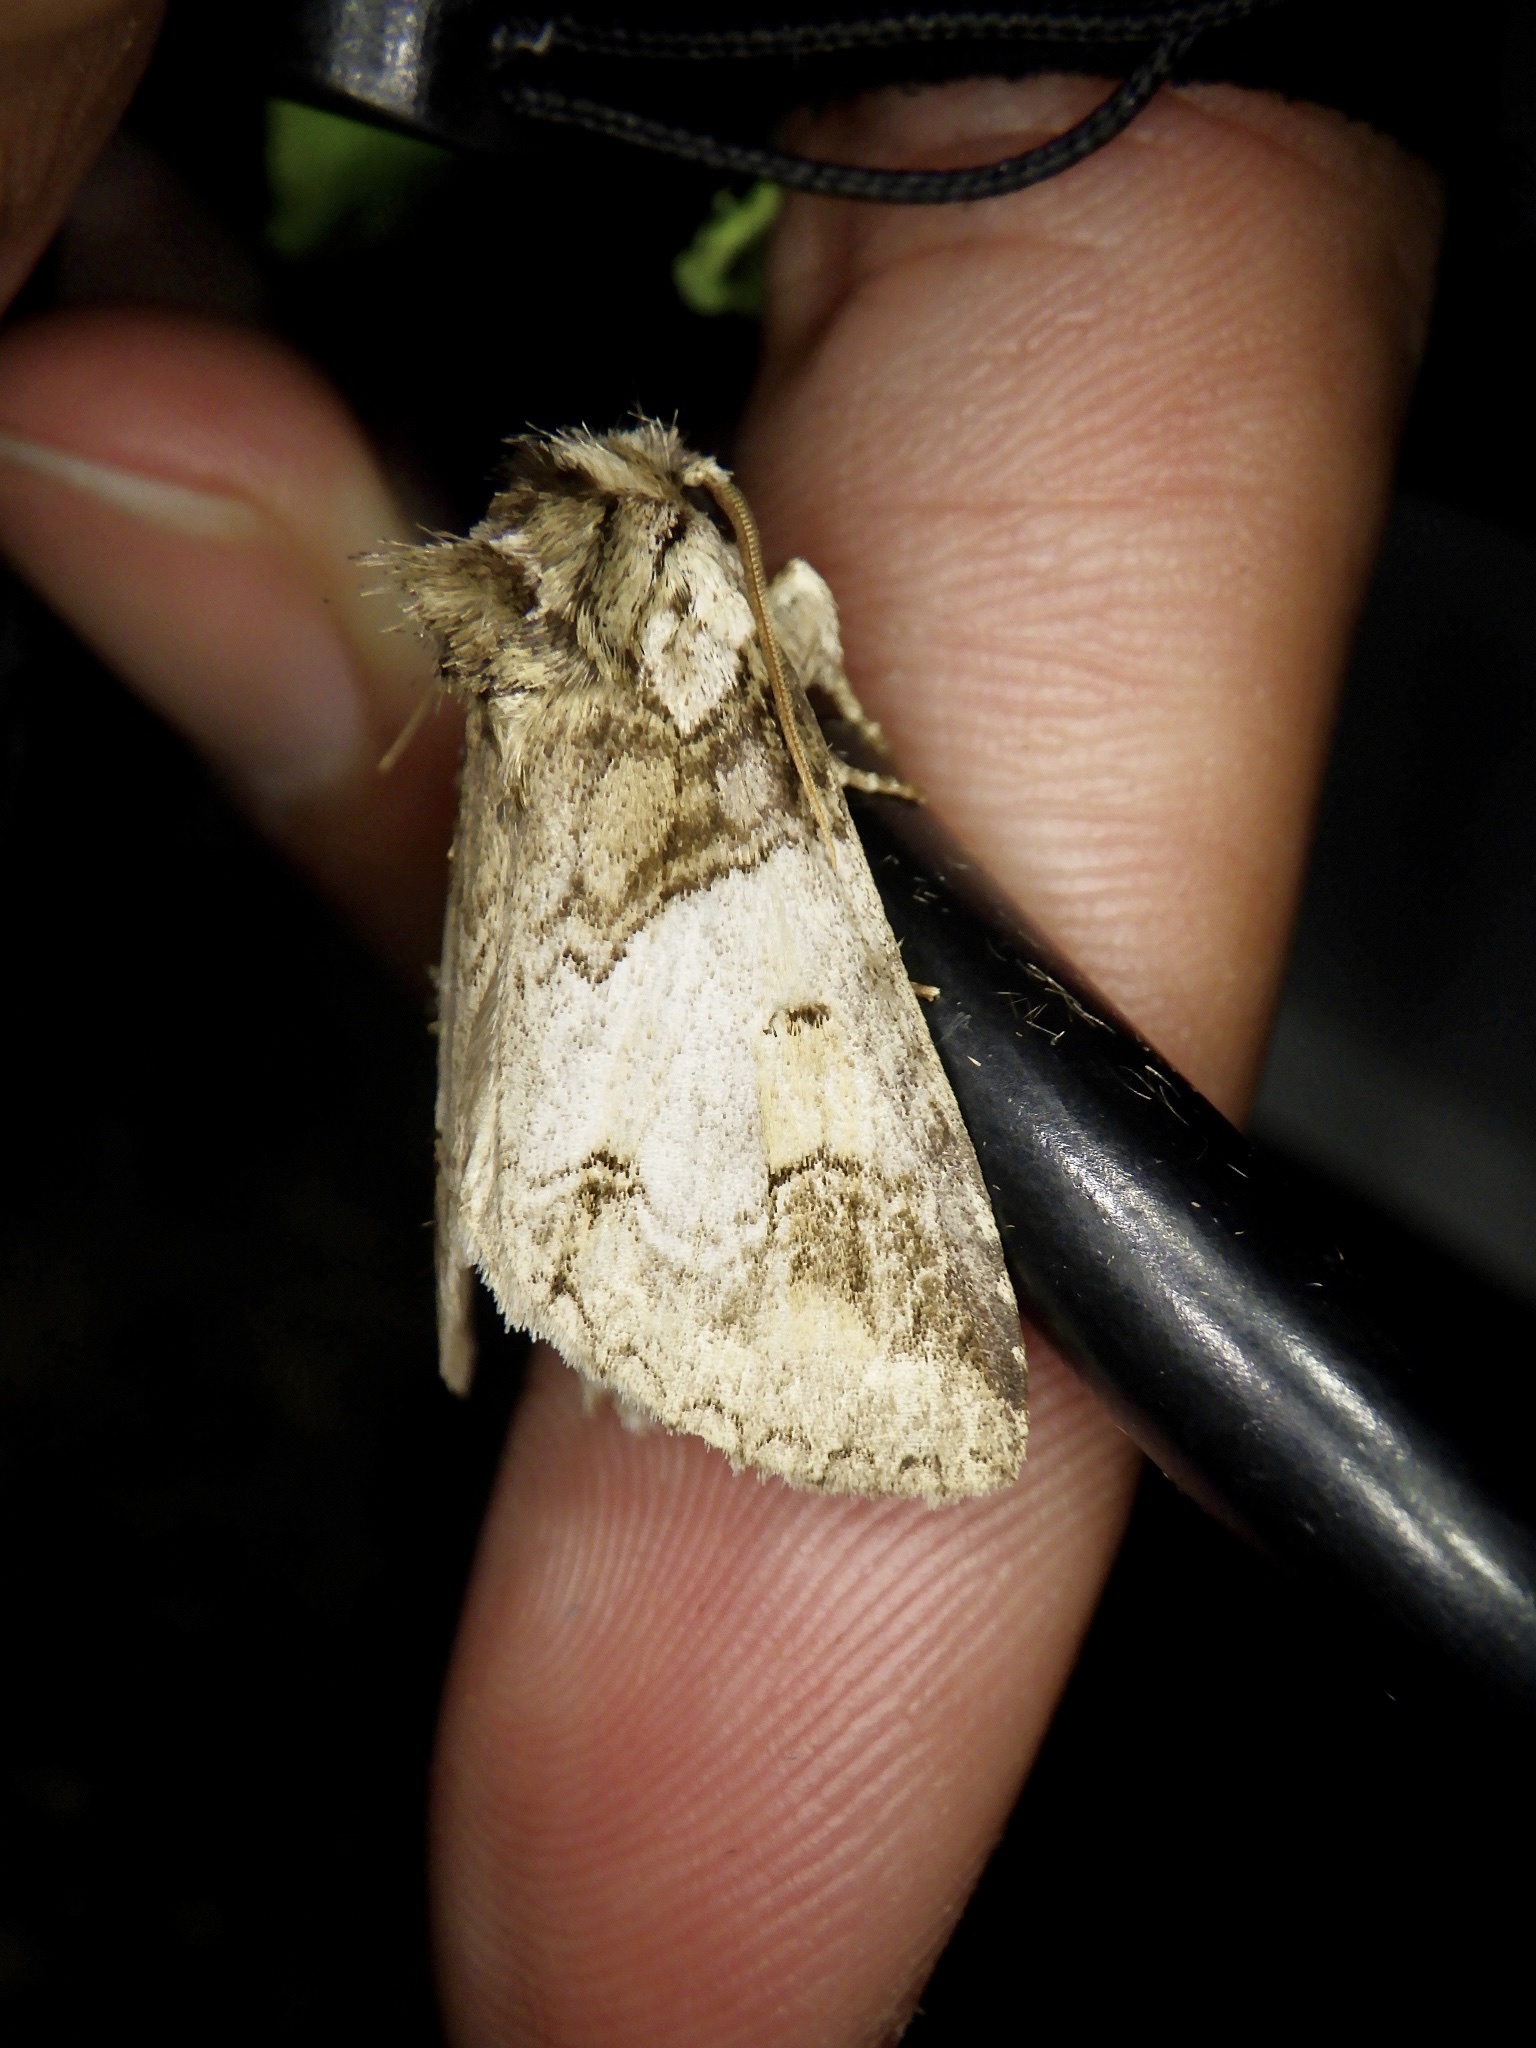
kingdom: Animalia
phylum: Arthropoda
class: Insecta
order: Lepidoptera
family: Notodontidae
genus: Neodrymonia
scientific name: Neodrymonia delia
